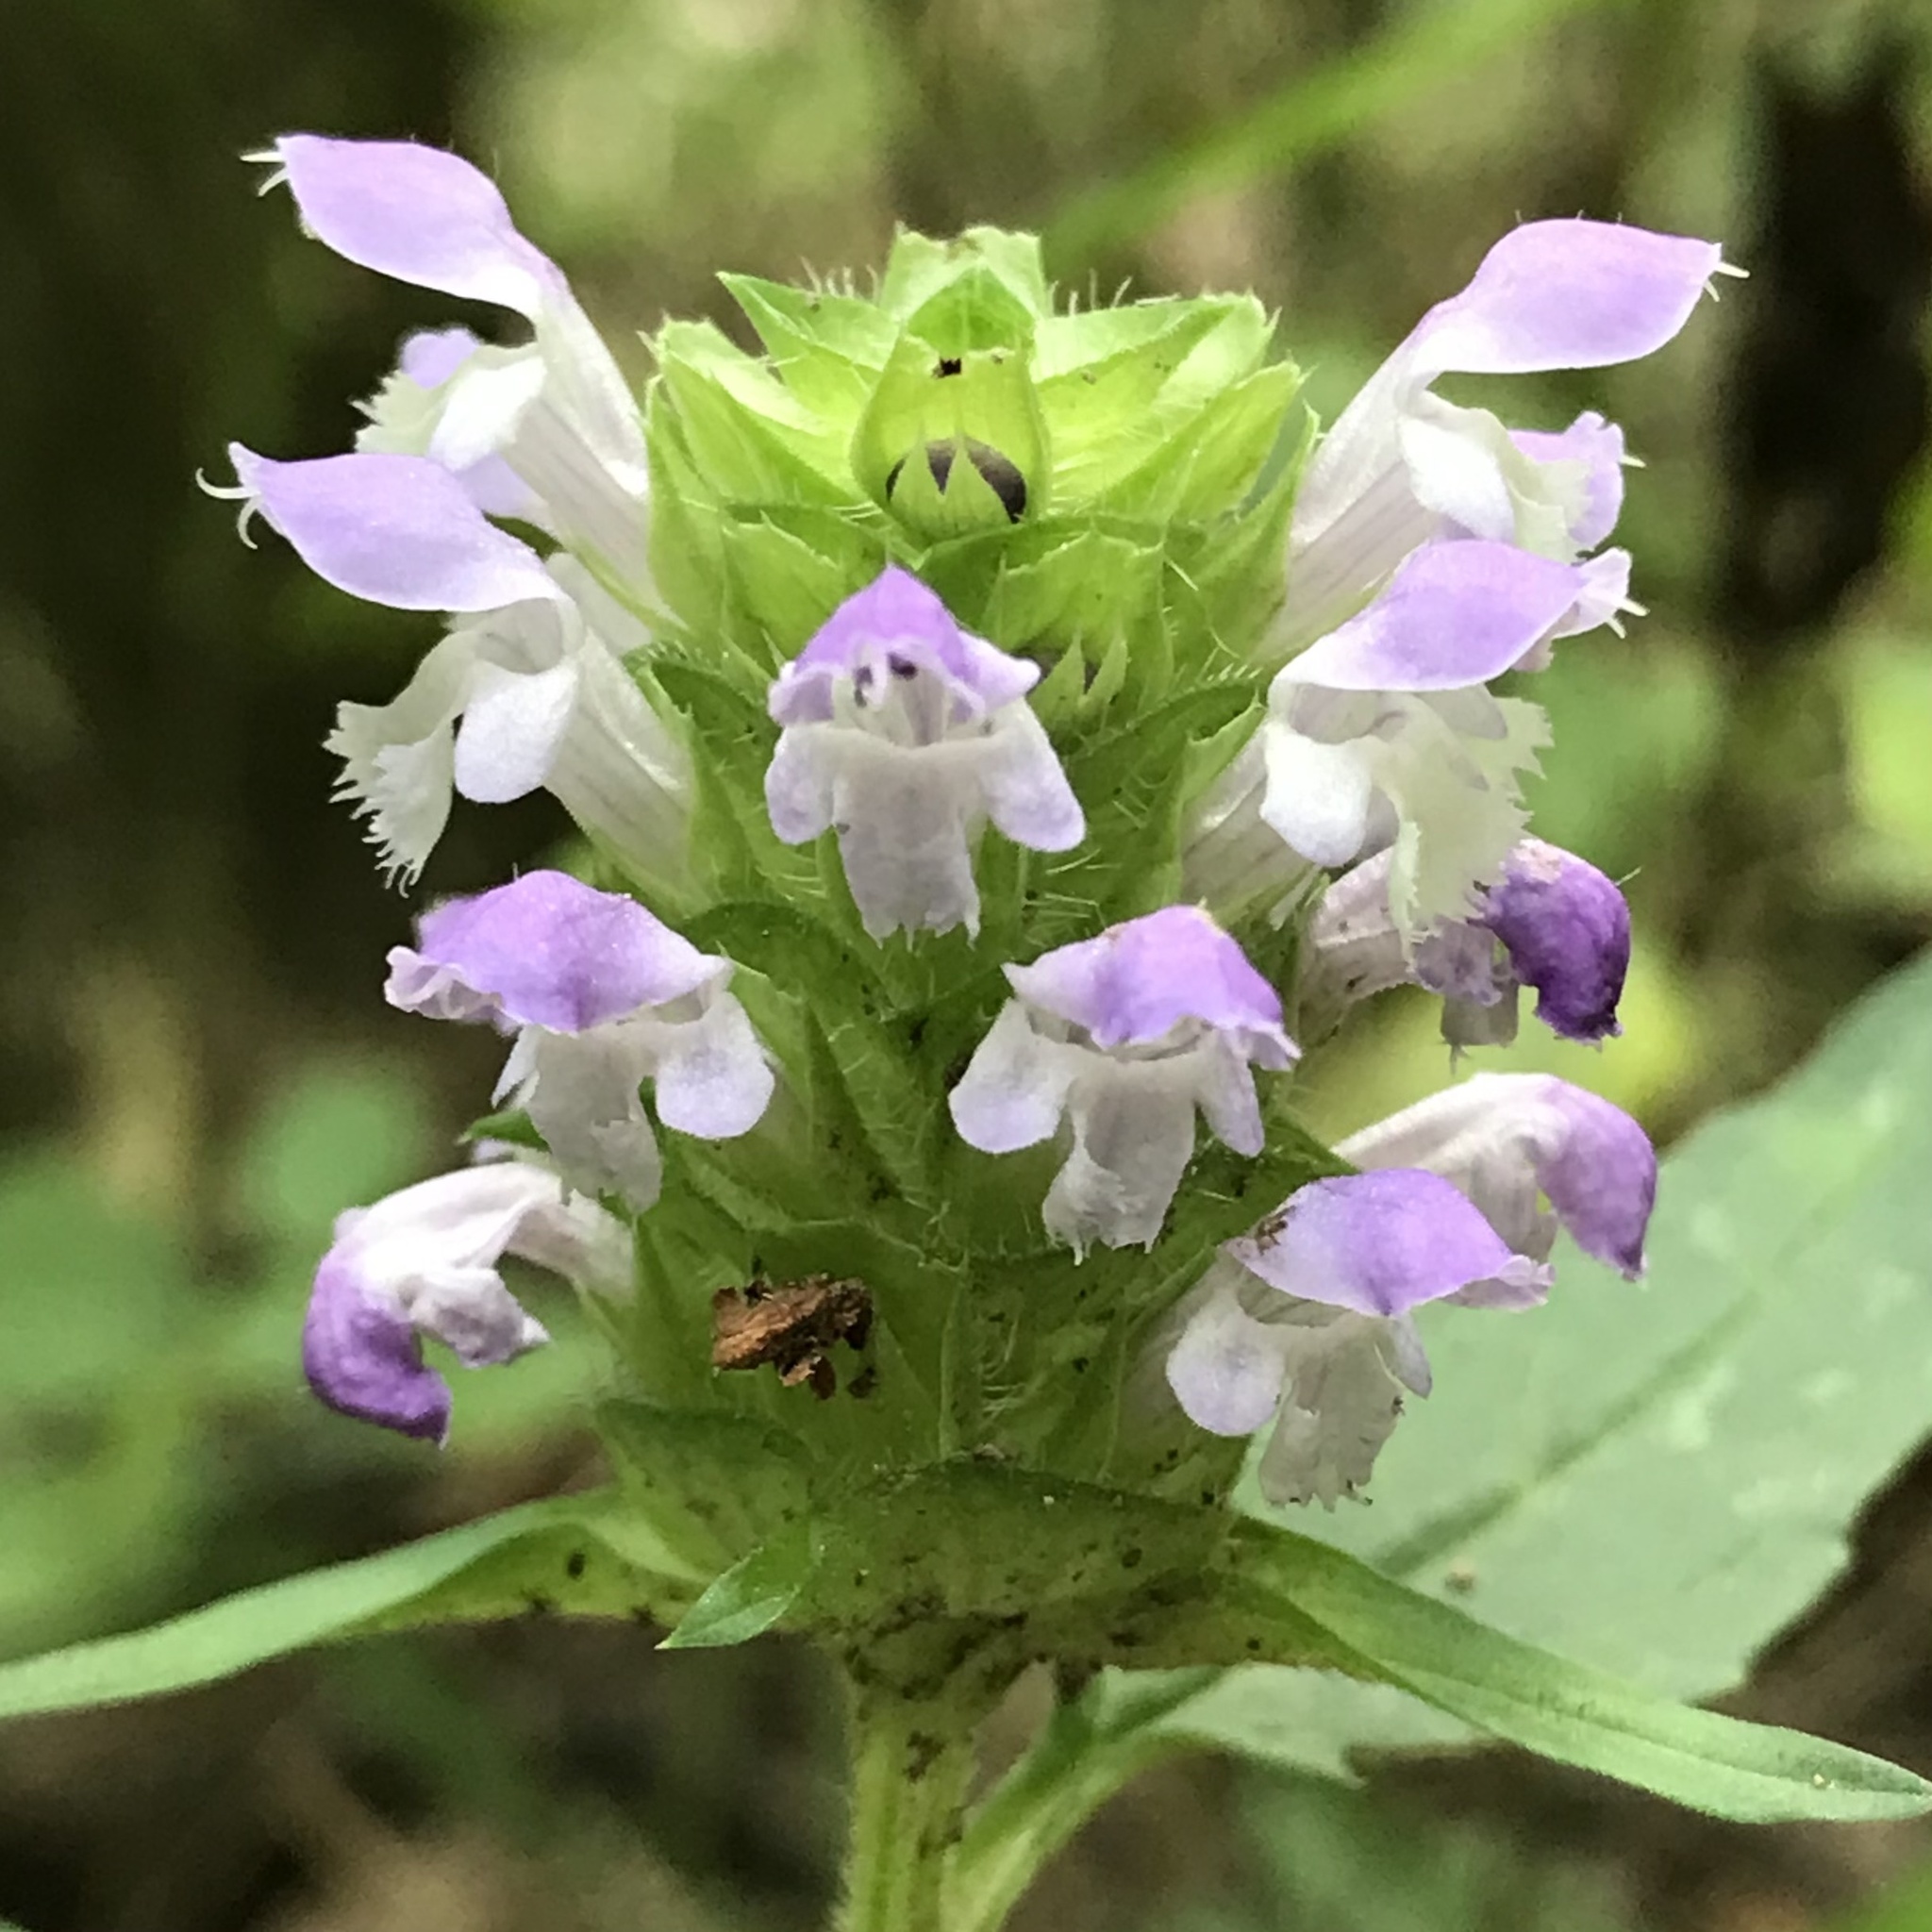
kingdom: Plantae
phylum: Tracheophyta
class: Magnoliopsida
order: Lamiales
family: Lamiaceae
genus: Prunella
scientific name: Prunella vulgaris
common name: Heal-all
